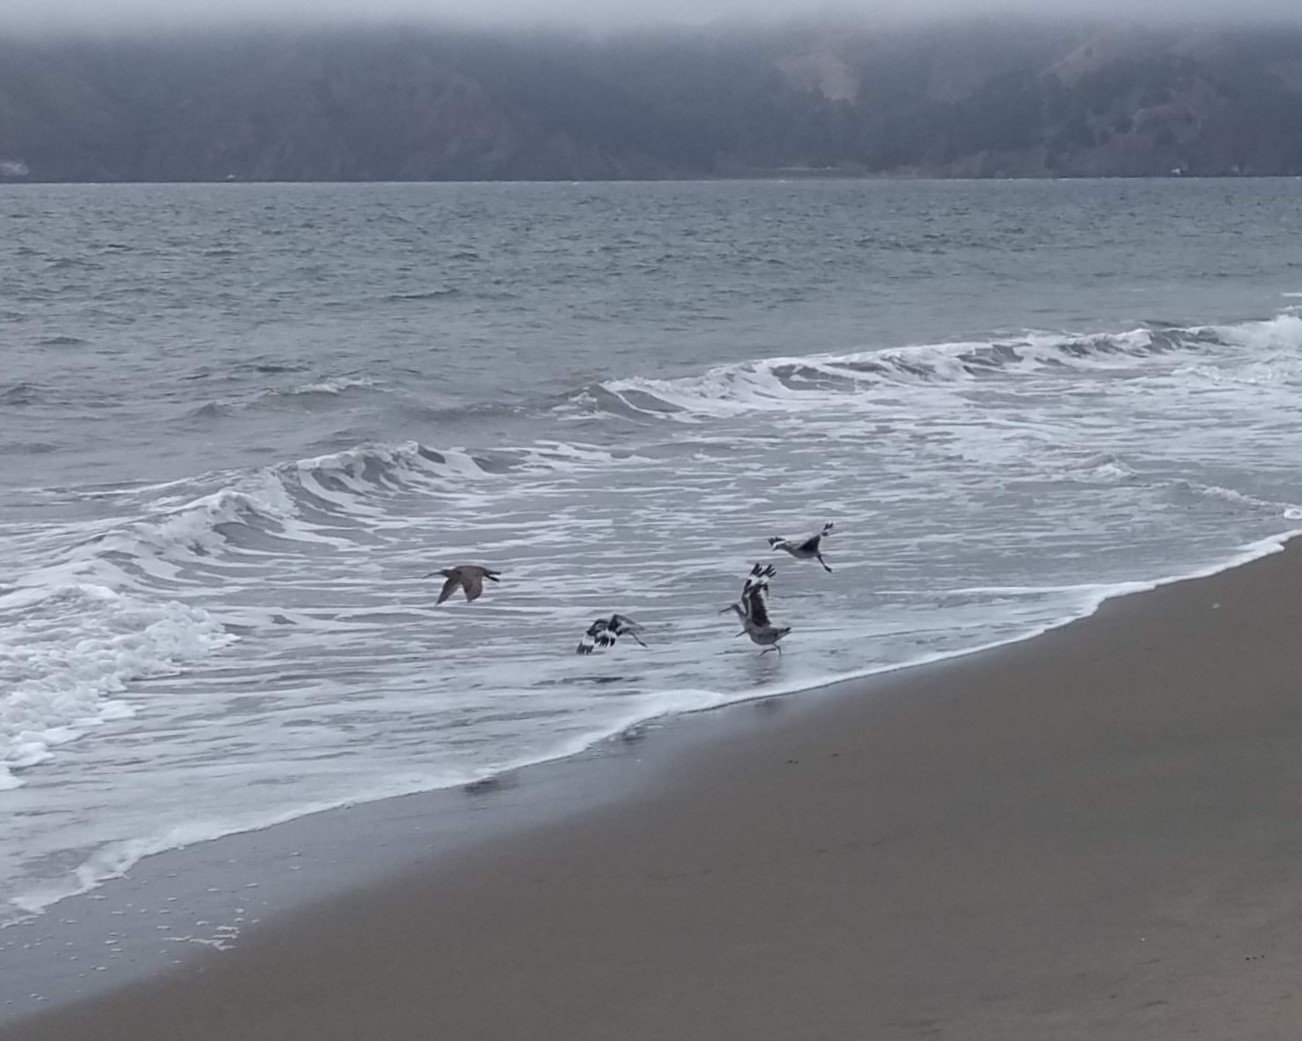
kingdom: Animalia
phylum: Chordata
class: Aves
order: Charadriiformes
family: Scolopacidae
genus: Tringa
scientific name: Tringa semipalmata
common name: Willet
